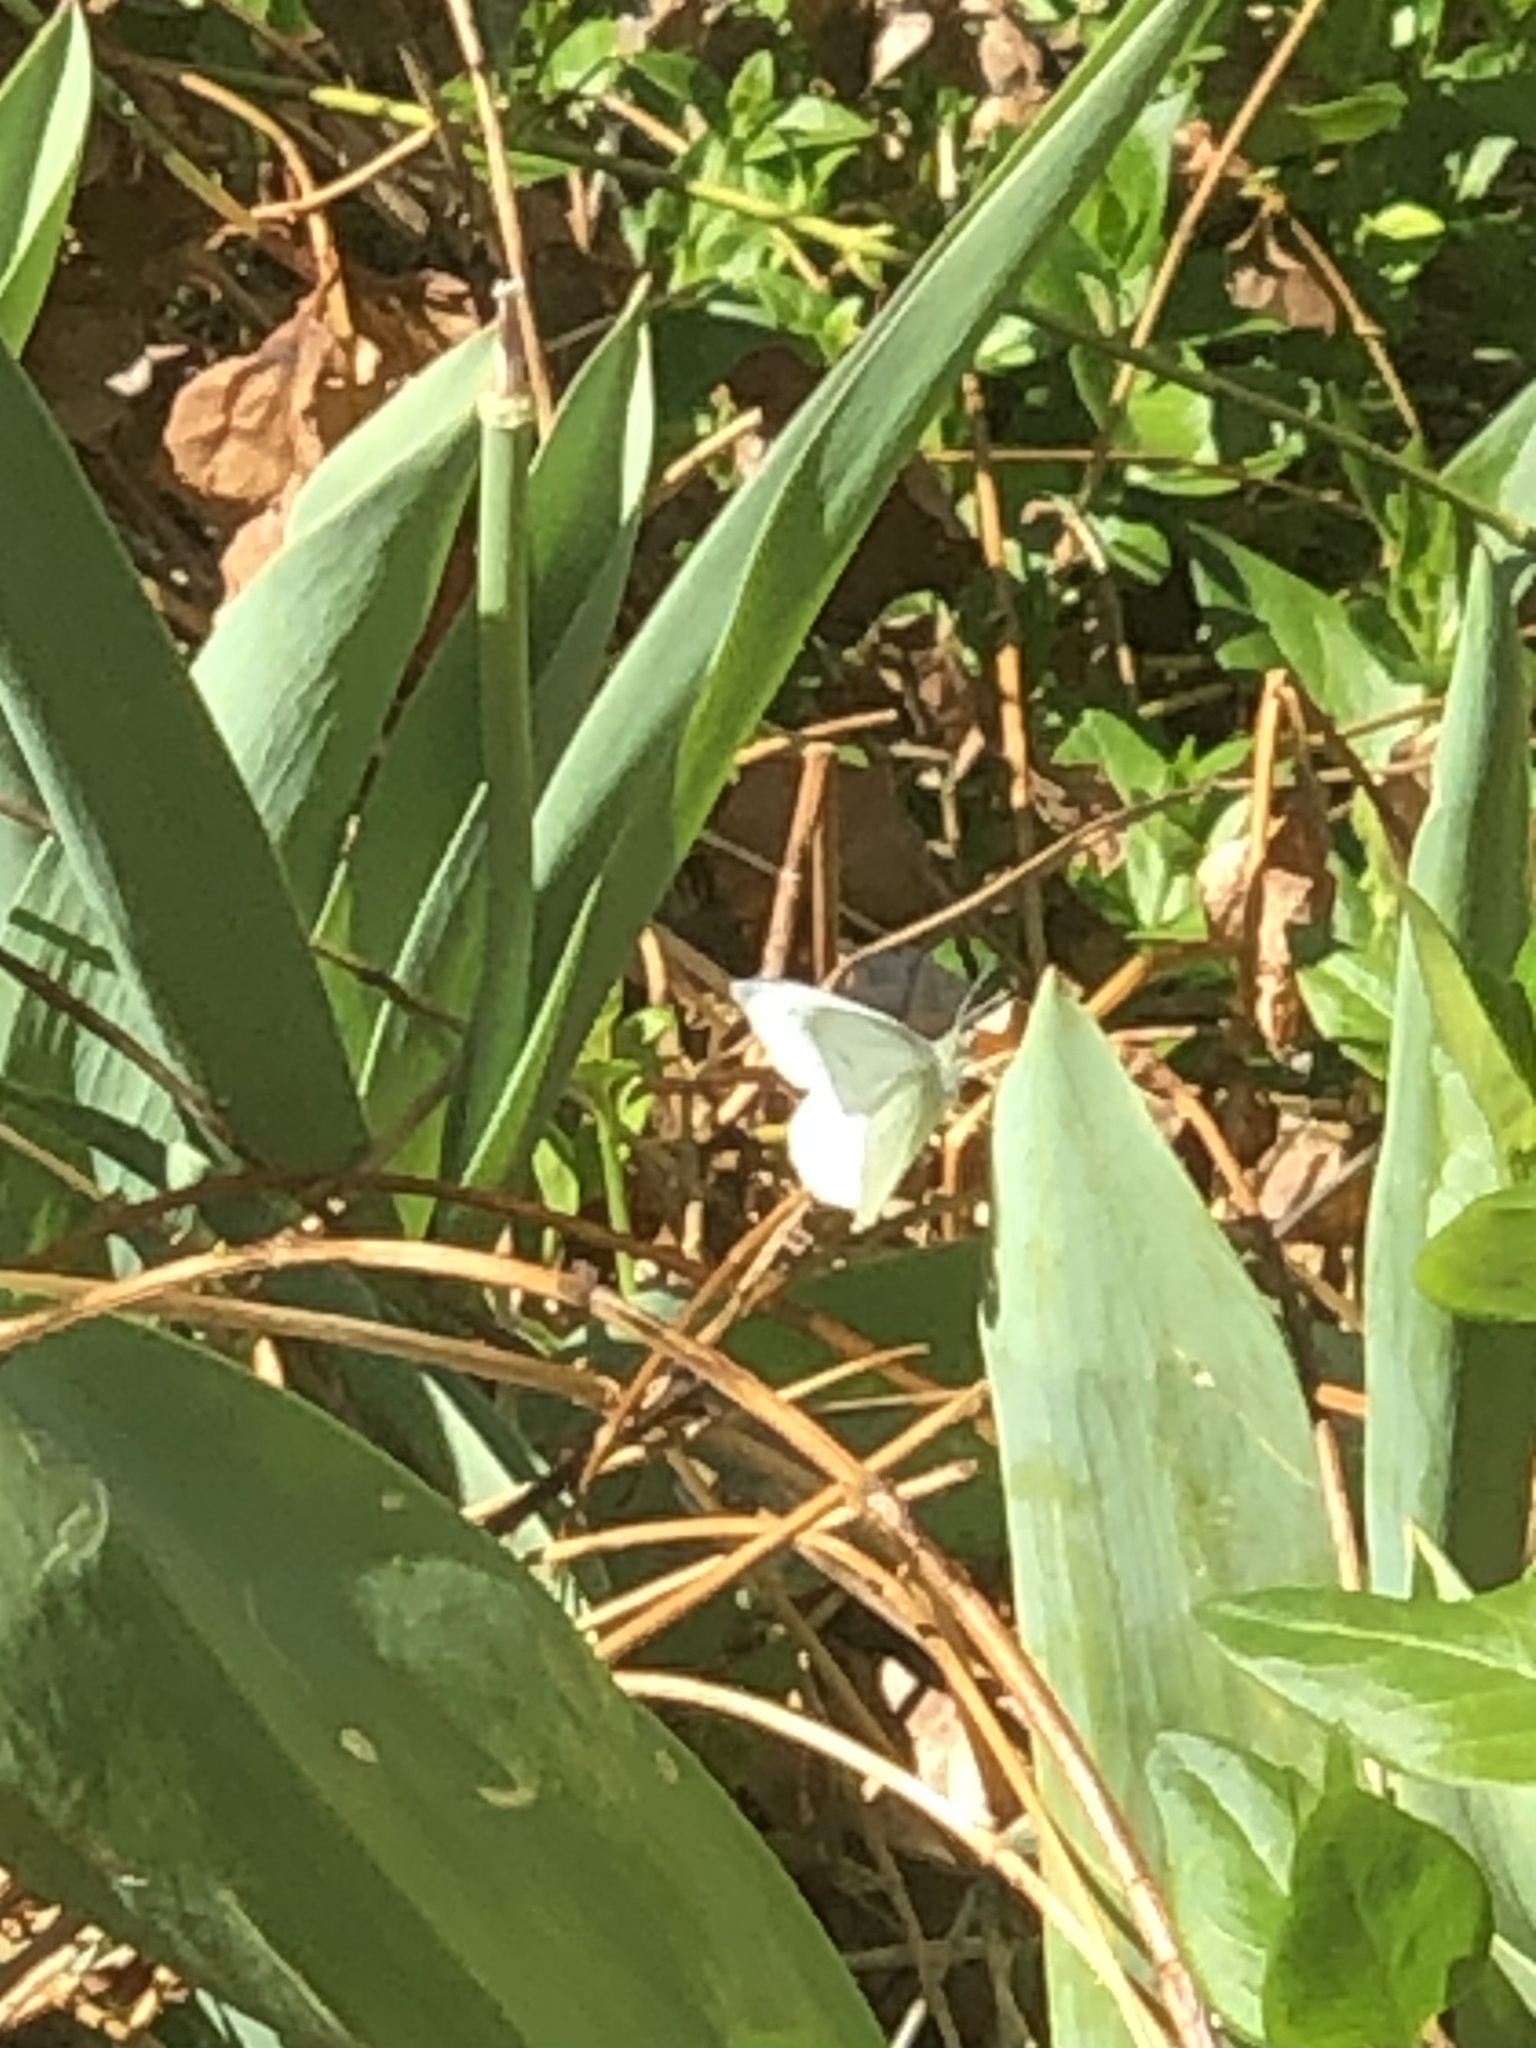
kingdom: Animalia
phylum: Arthropoda
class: Insecta
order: Lepidoptera
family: Pieridae
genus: Pieris
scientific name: Pieris rapae
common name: Small white
